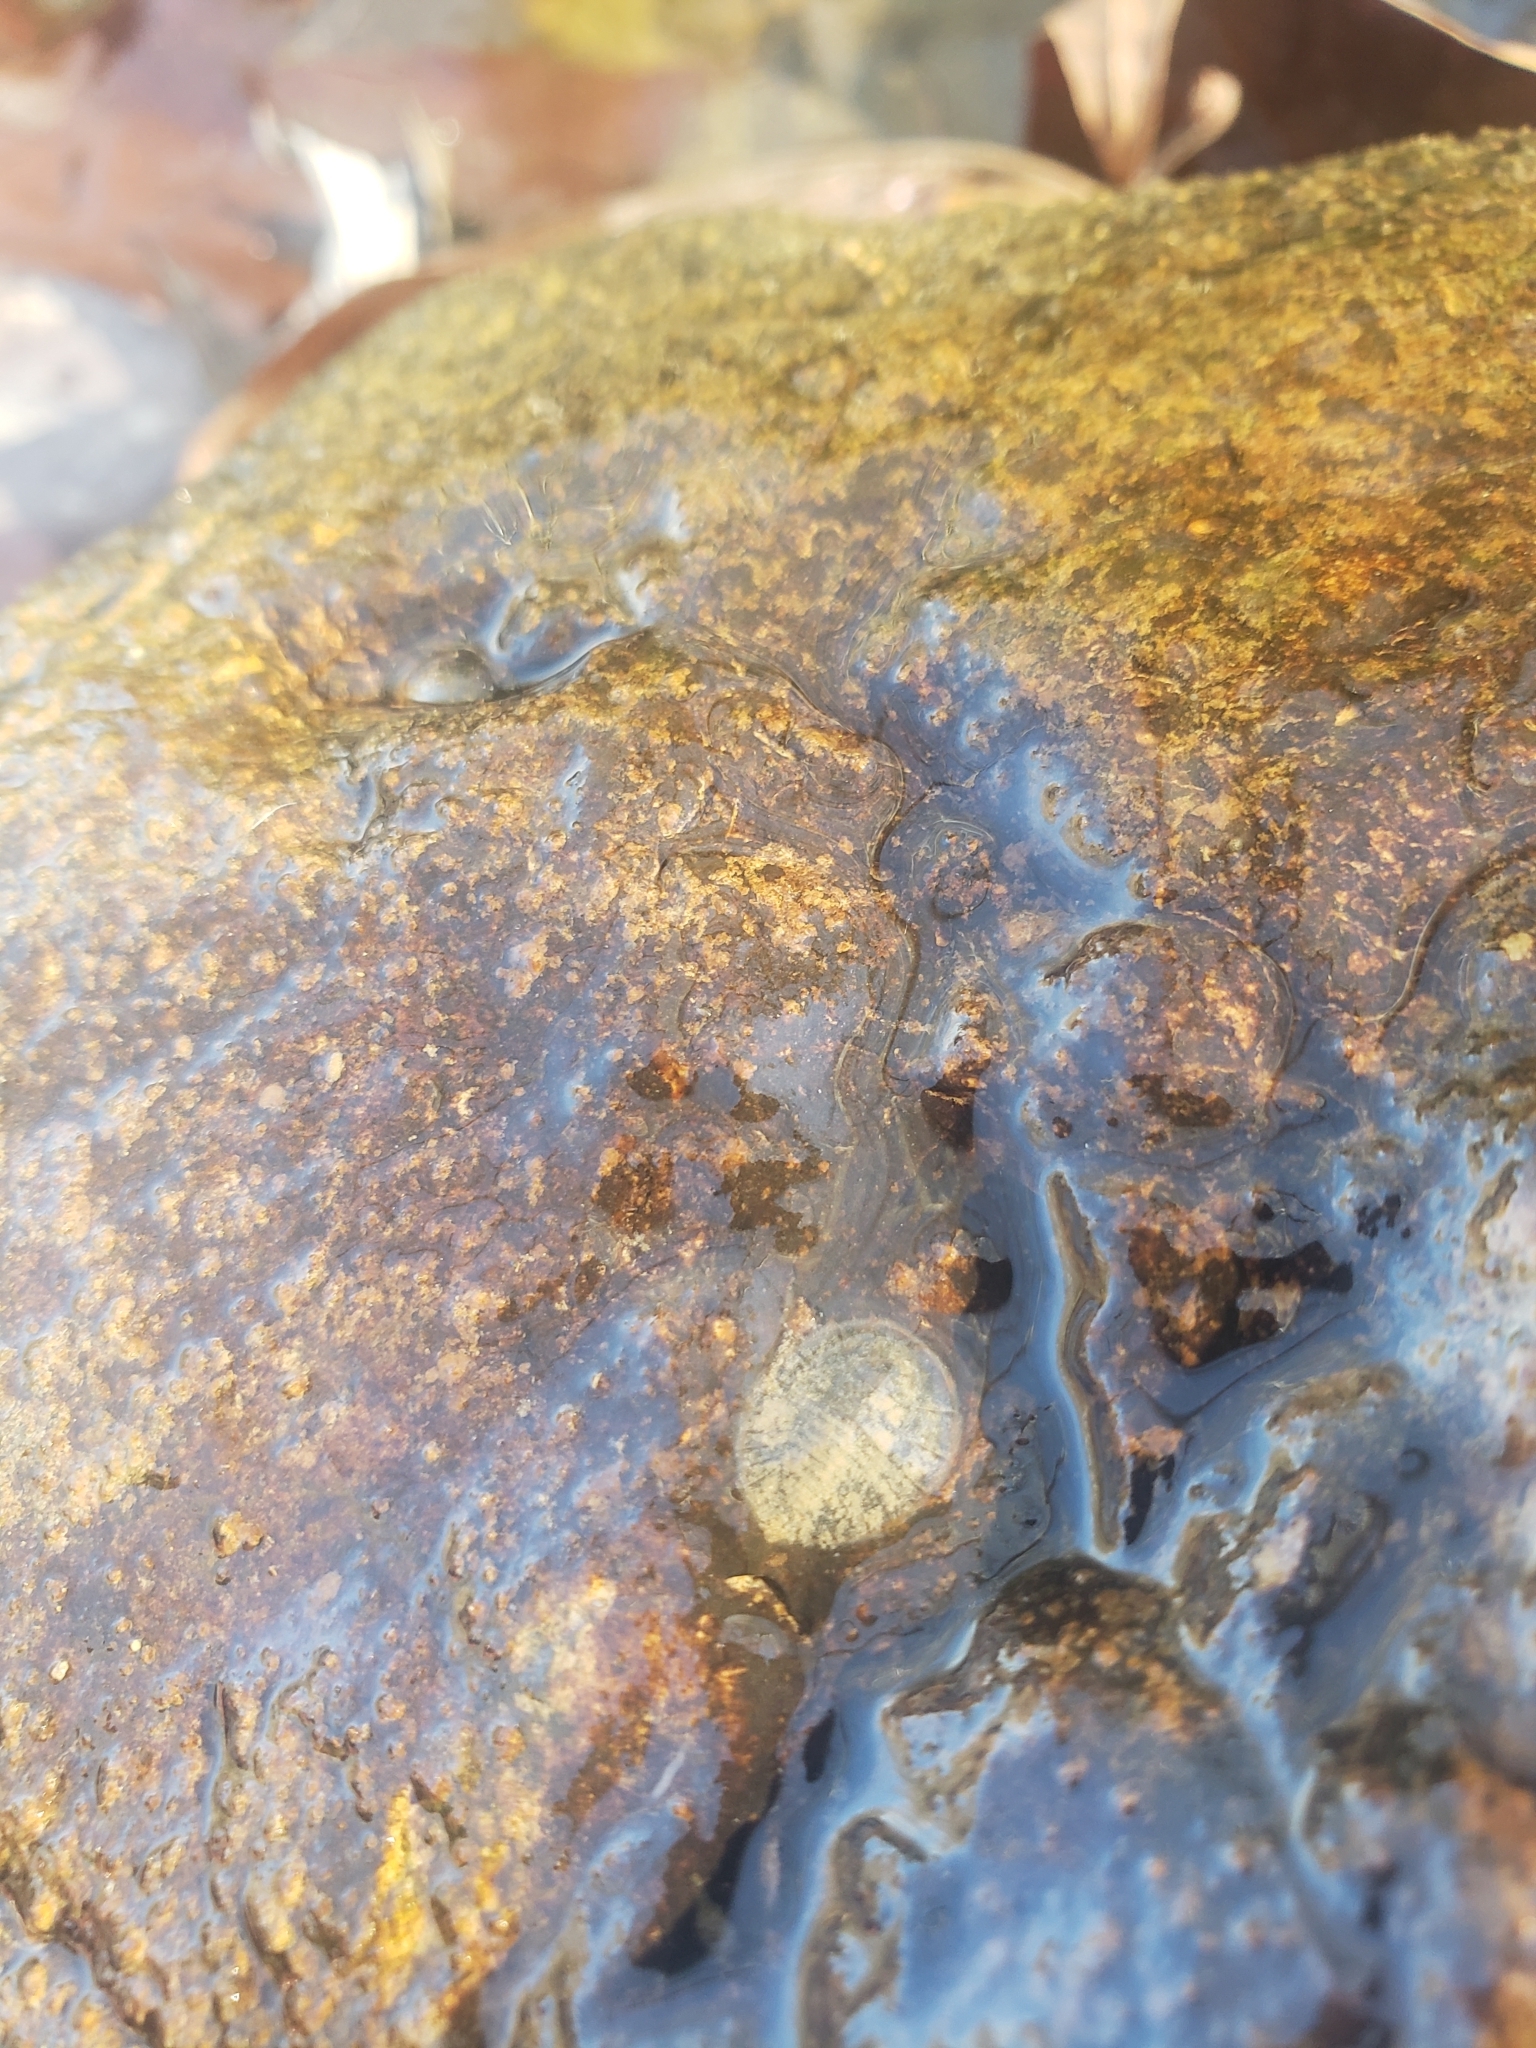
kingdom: Animalia
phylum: Arthropoda
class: Insecta
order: Coleoptera
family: Psephenidae
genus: Psephenus
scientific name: Psephenus herricki
